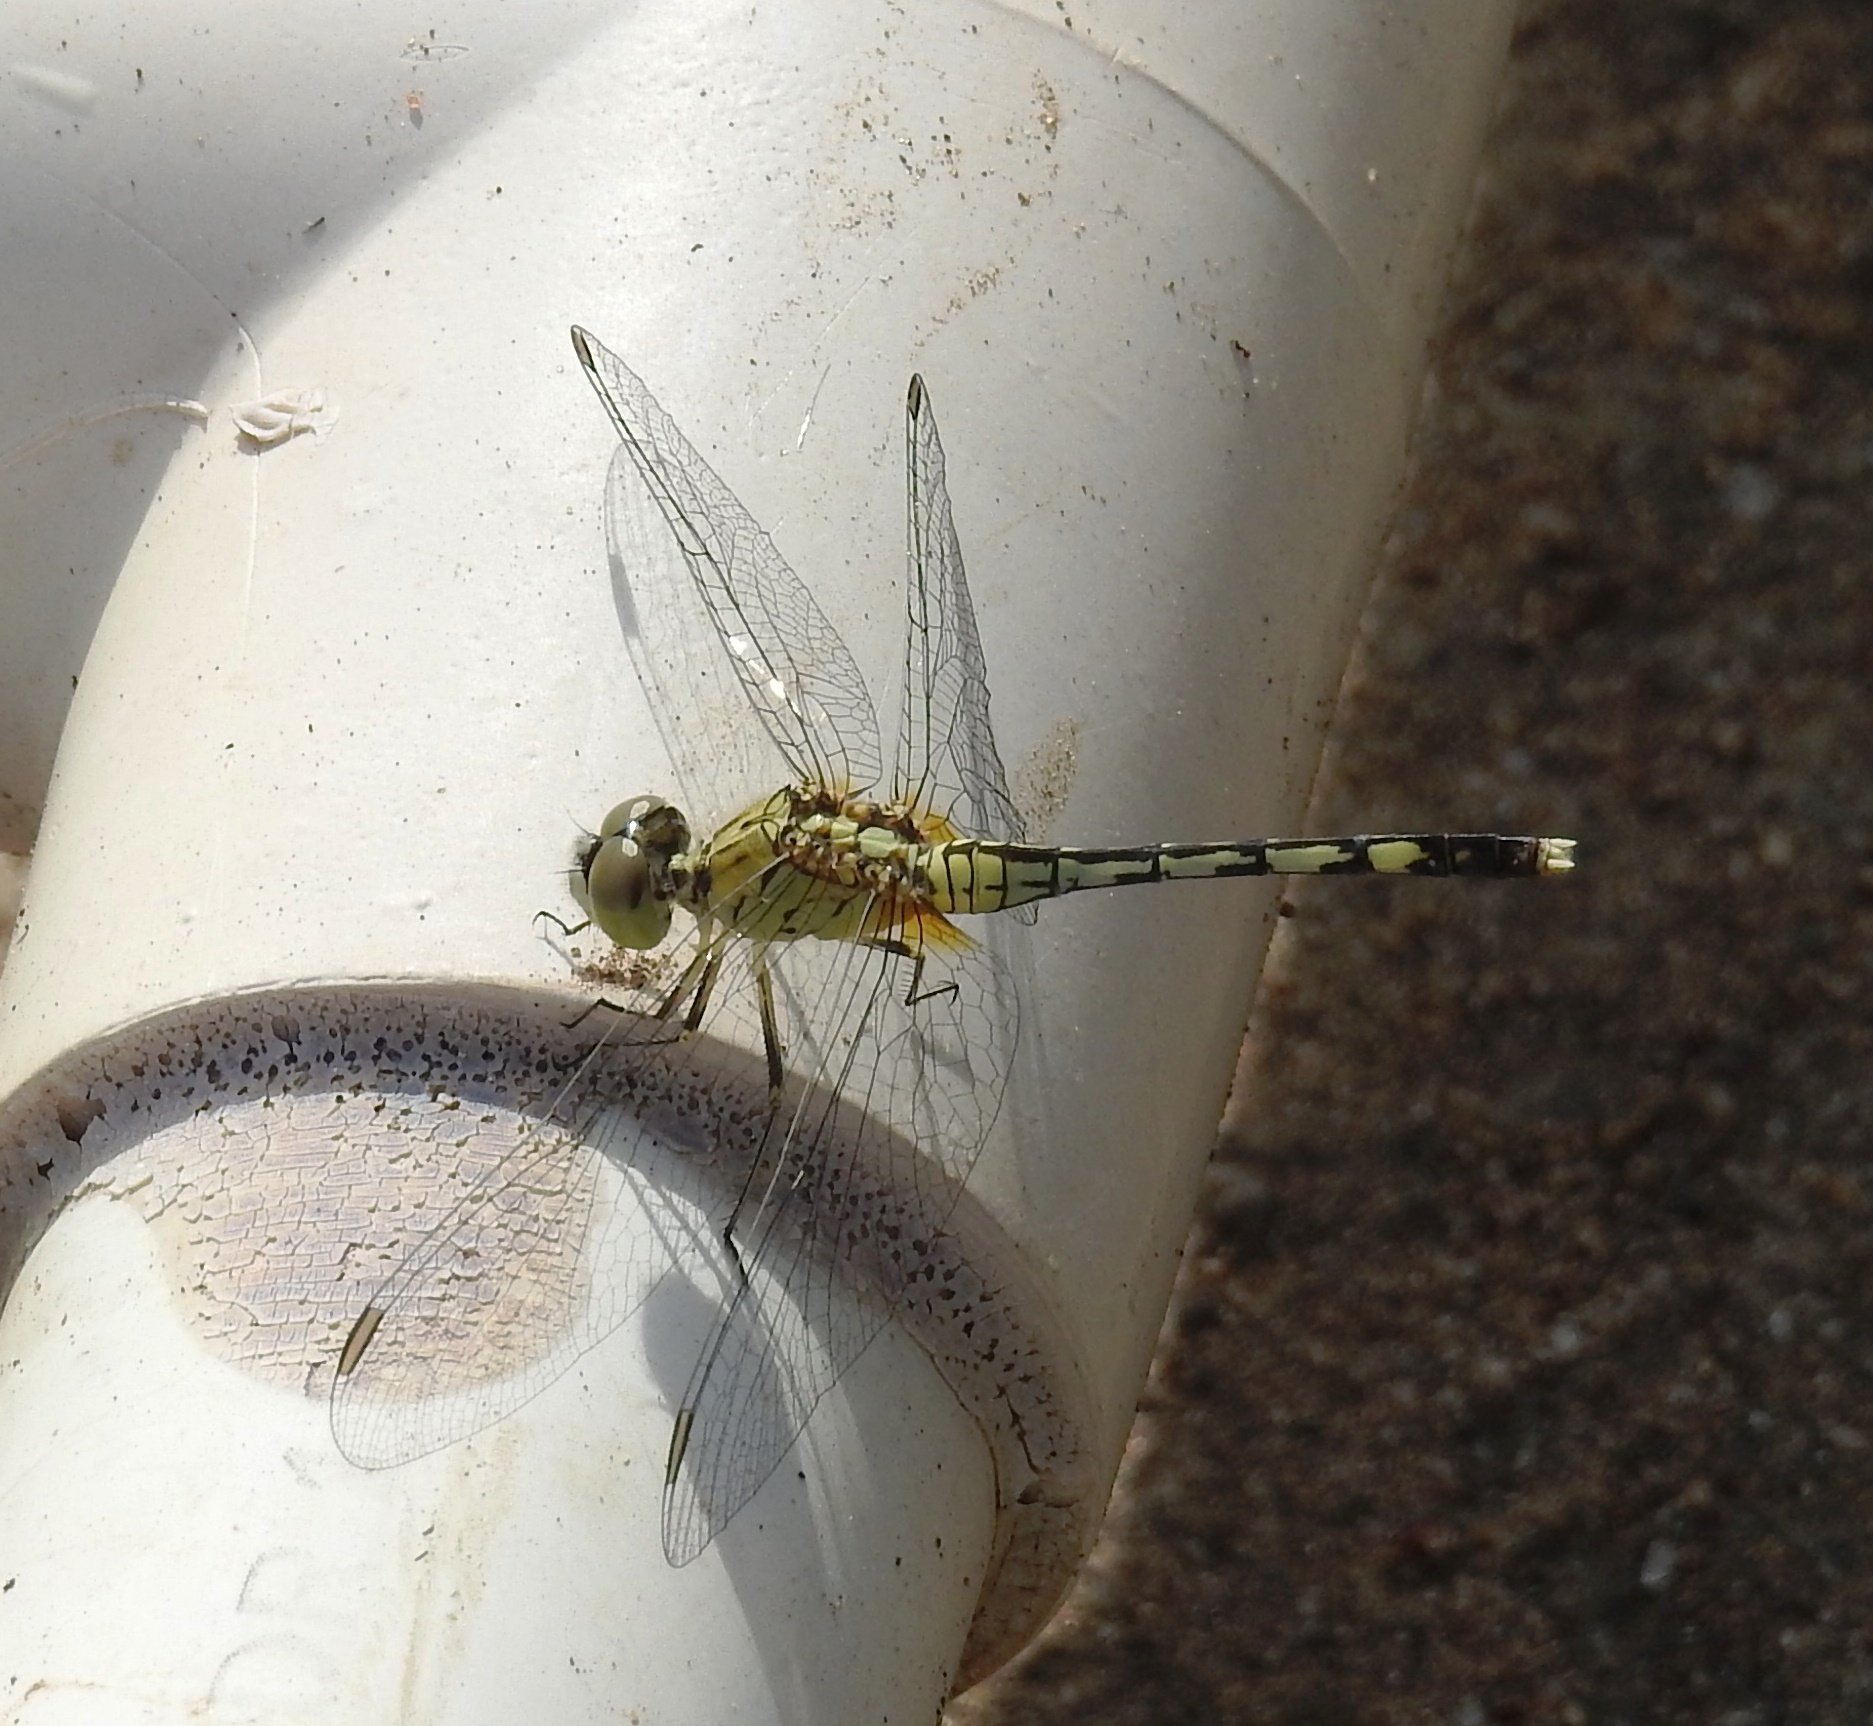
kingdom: Animalia
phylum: Arthropoda
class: Insecta
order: Odonata
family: Libellulidae
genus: Diplacodes
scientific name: Diplacodes trivialis
